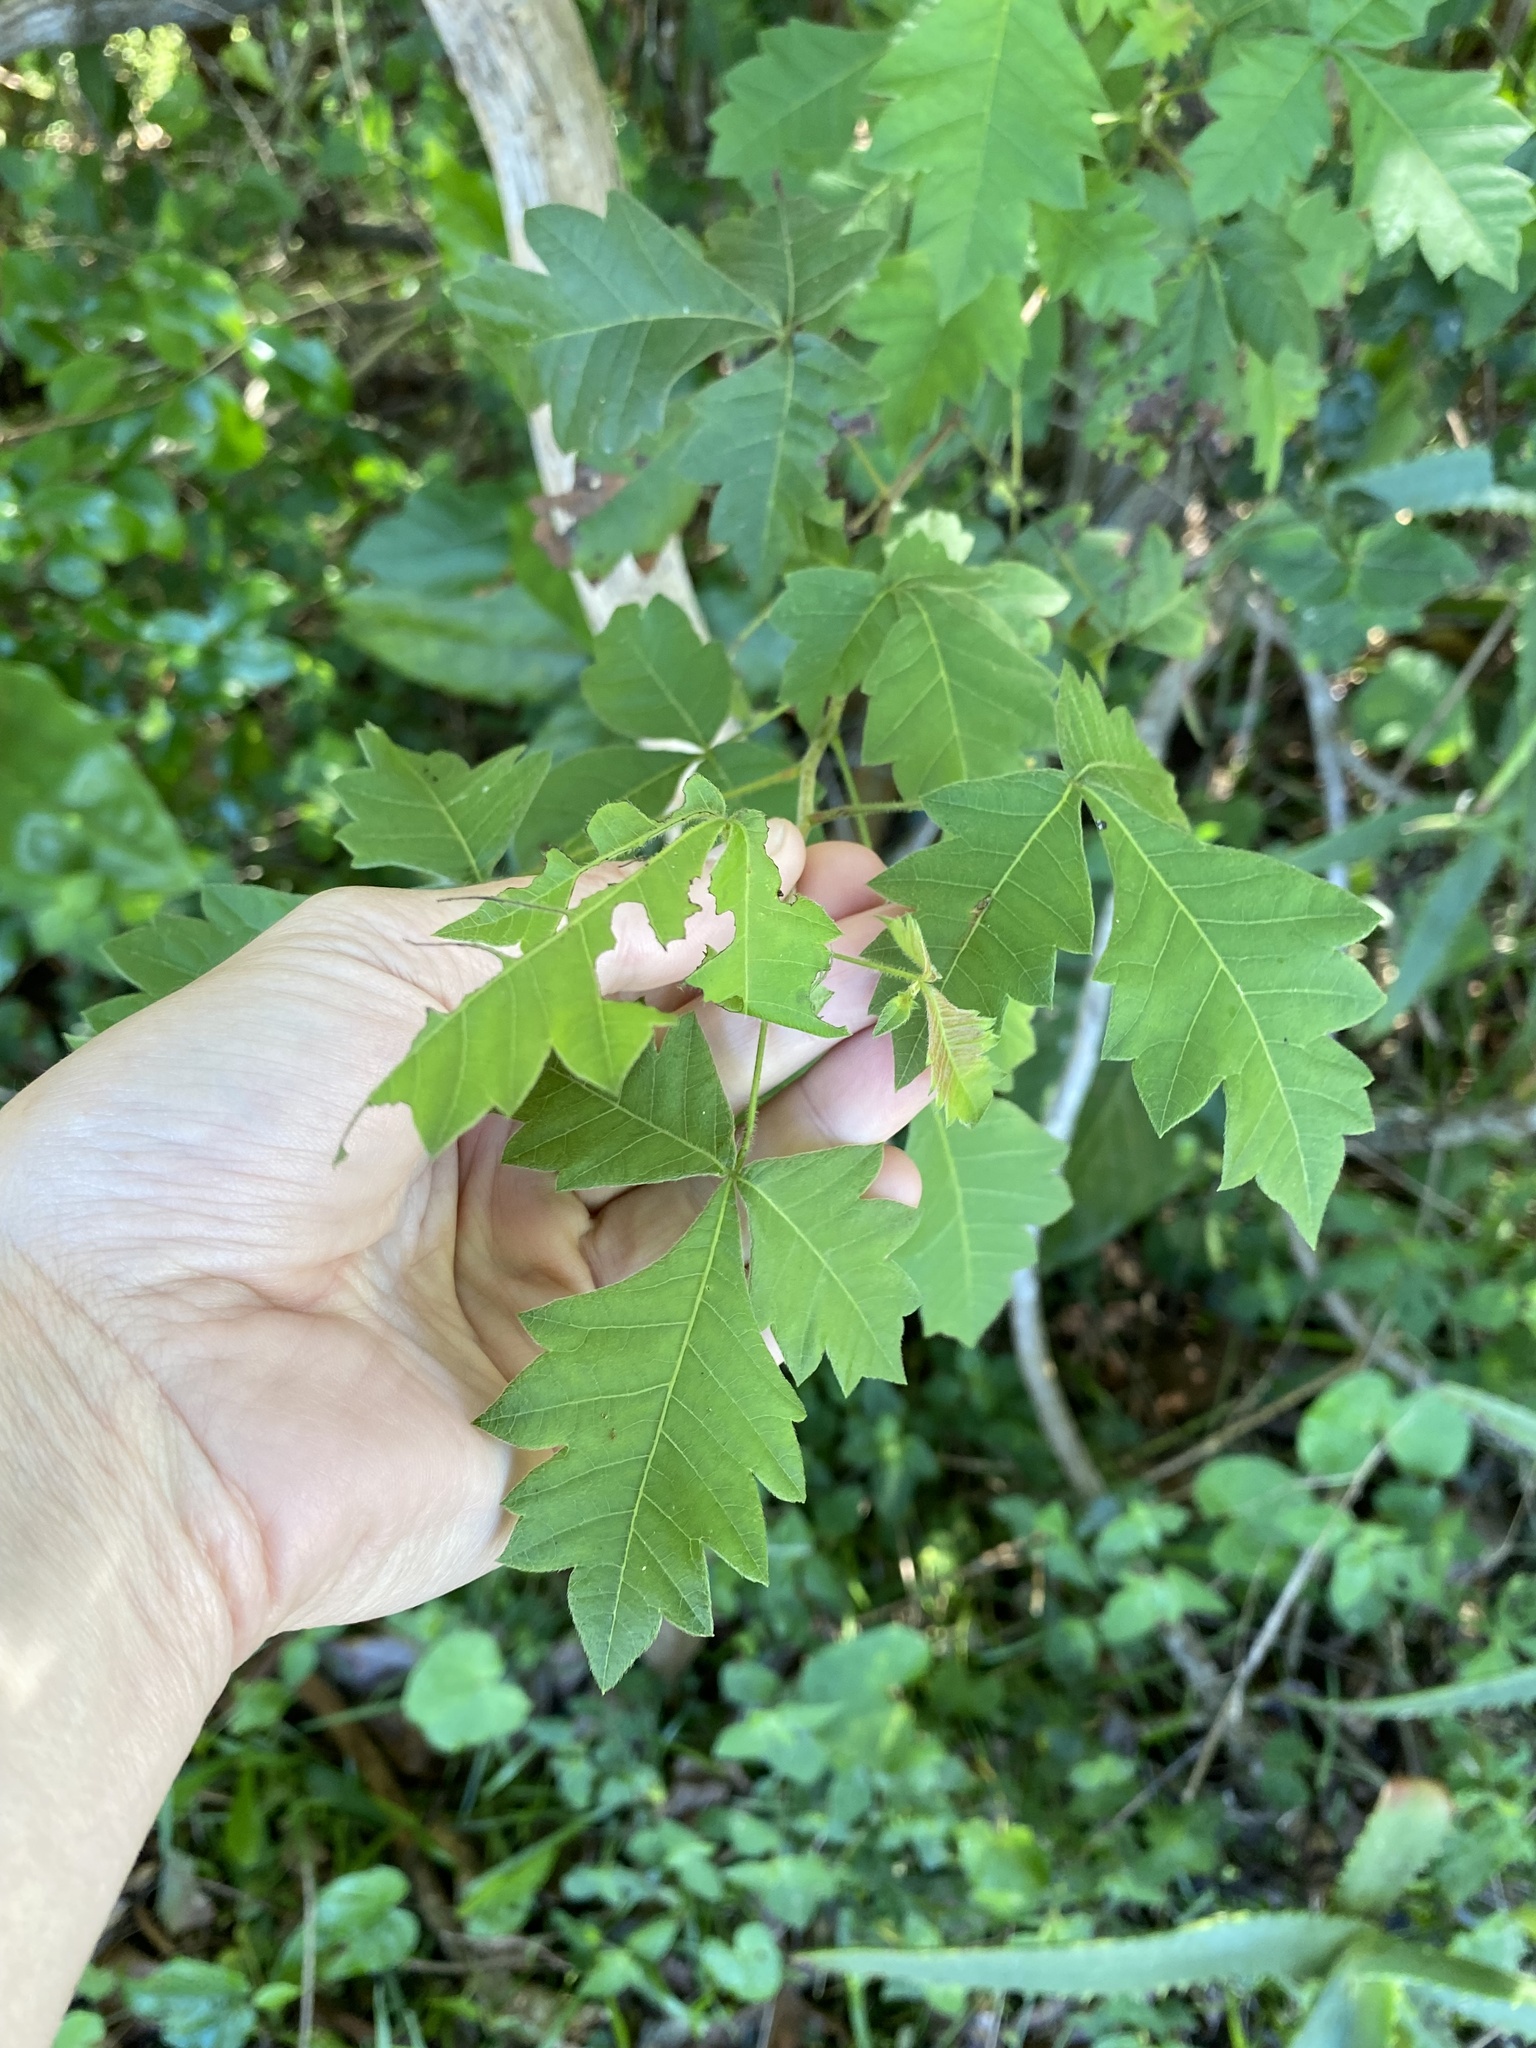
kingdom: Plantae
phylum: Tracheophyta
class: Magnoliopsida
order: Sapindales
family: Anacardiaceae
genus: Searsia
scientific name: Searsia dentata
